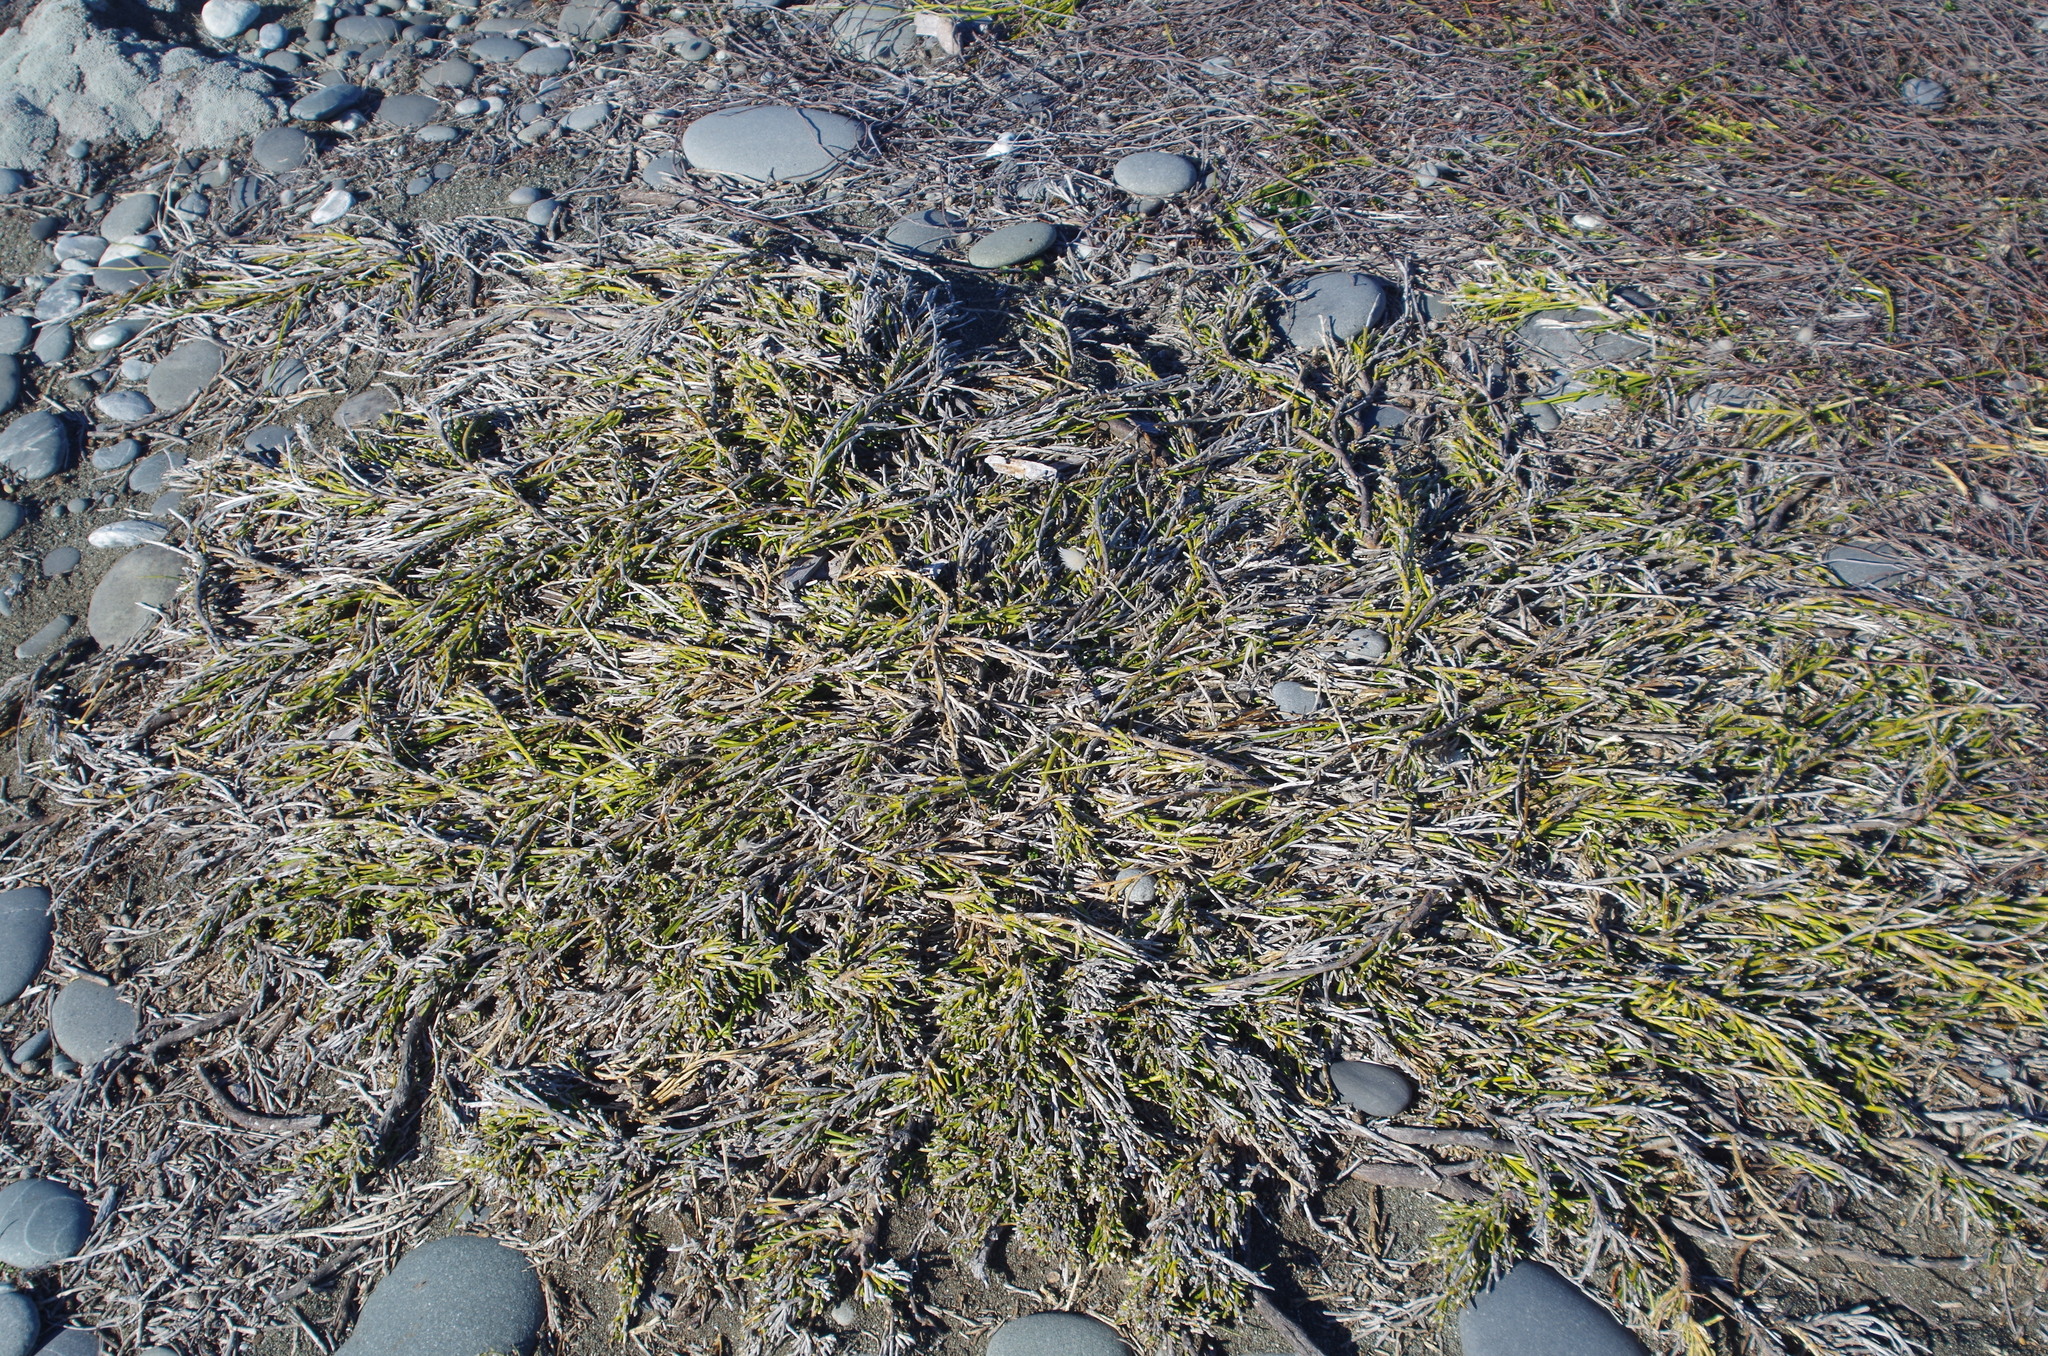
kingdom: Plantae
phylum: Tracheophyta
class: Magnoliopsida
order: Fabales
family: Fabaceae
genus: Carmichaelia
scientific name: Carmichaelia appressa
